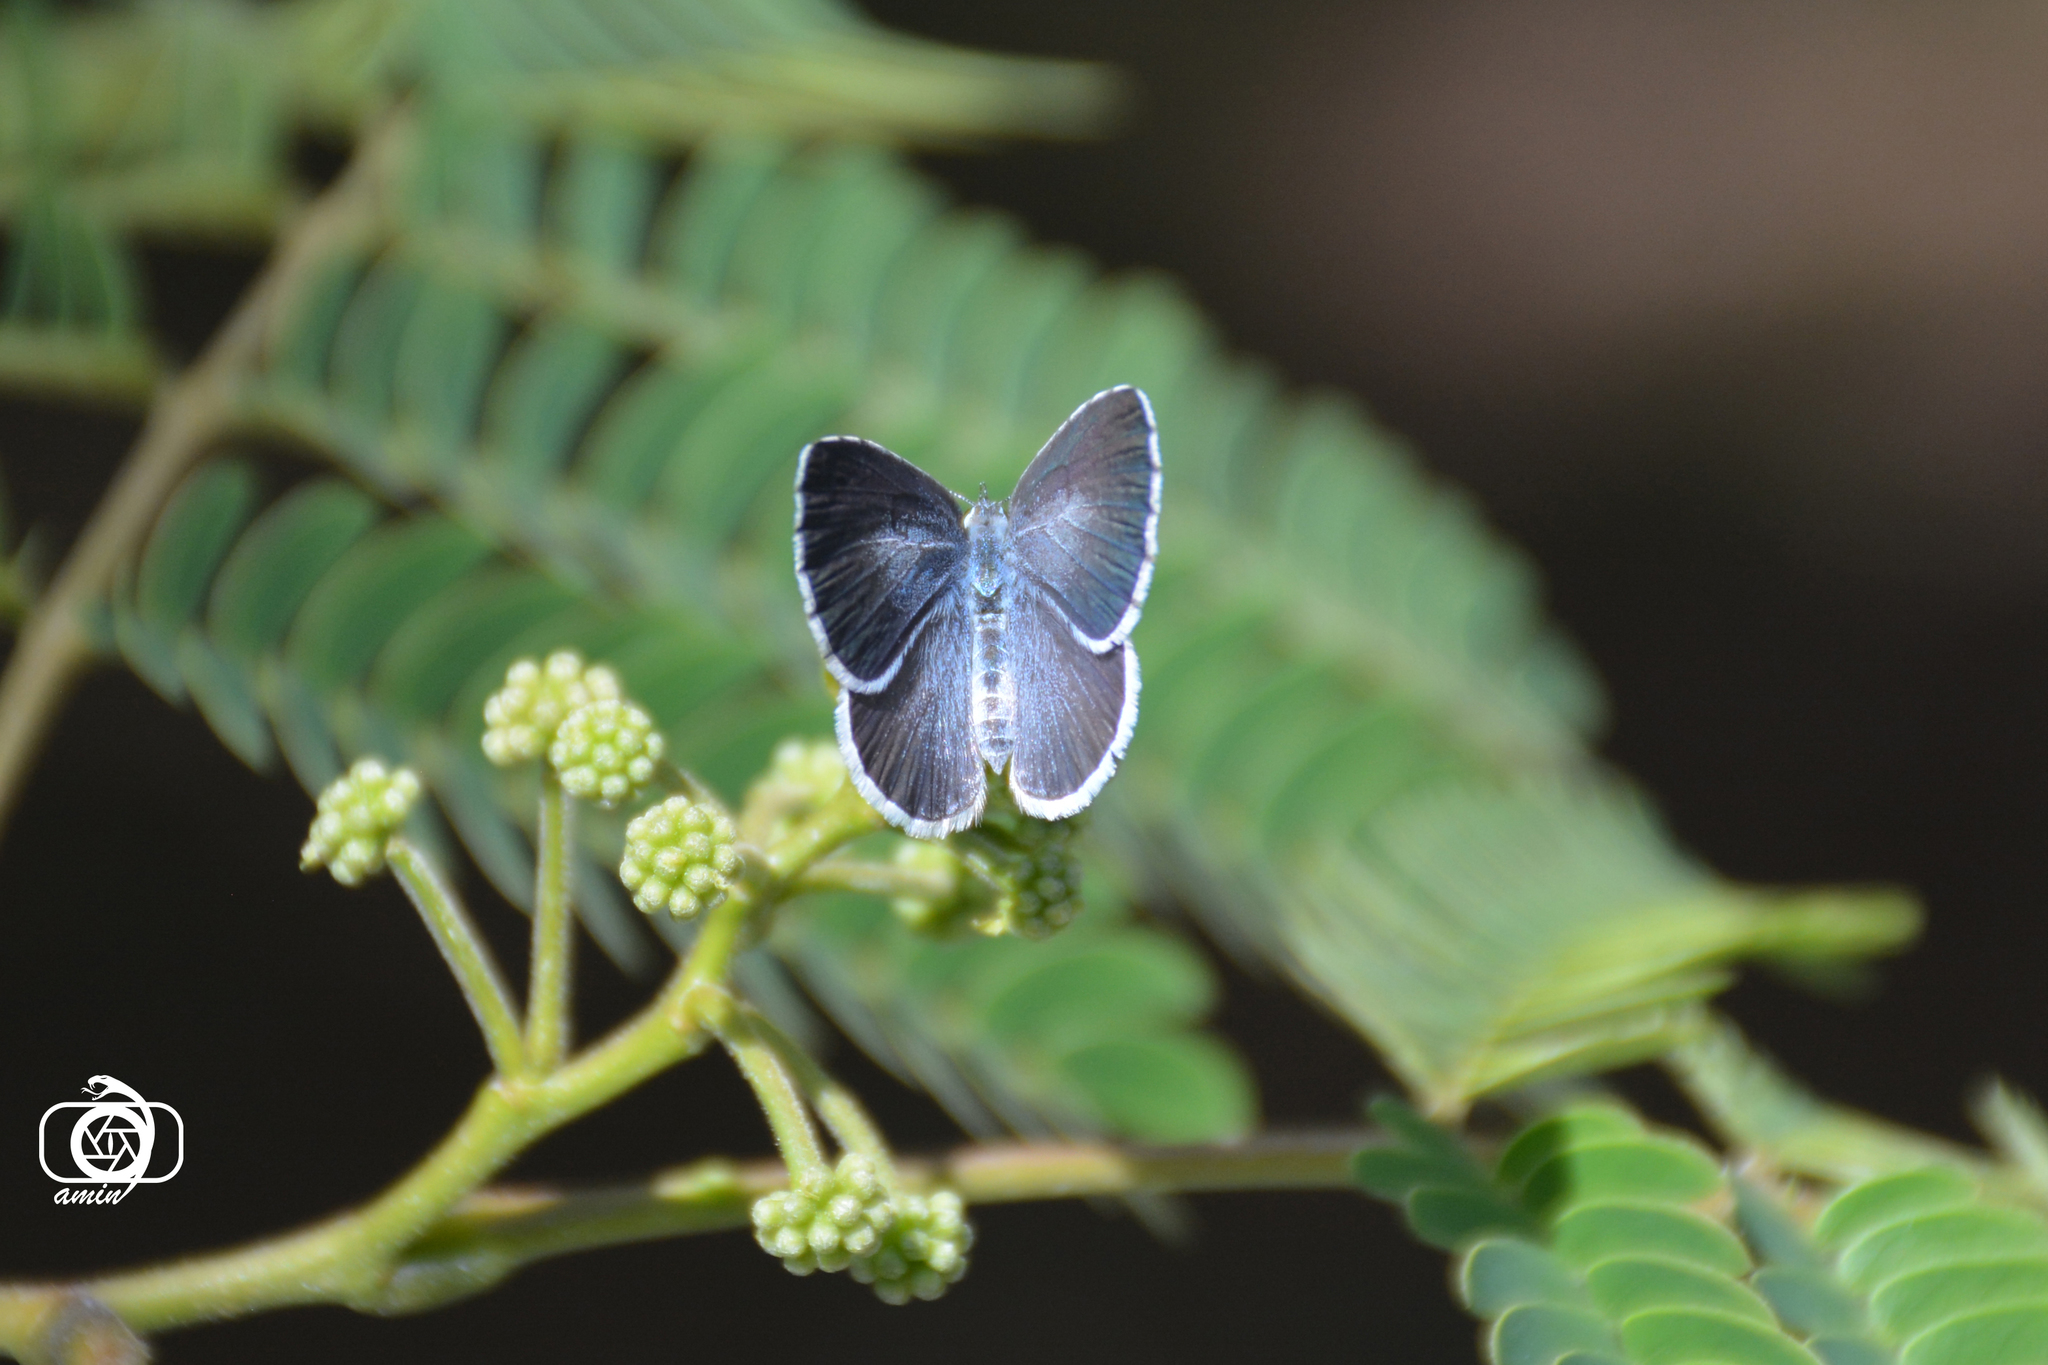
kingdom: Animalia
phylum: Arthropoda
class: Insecta
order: Lepidoptera
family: Lycaenidae
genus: Celastrina
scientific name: Celastrina argiolus
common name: Holly blue
